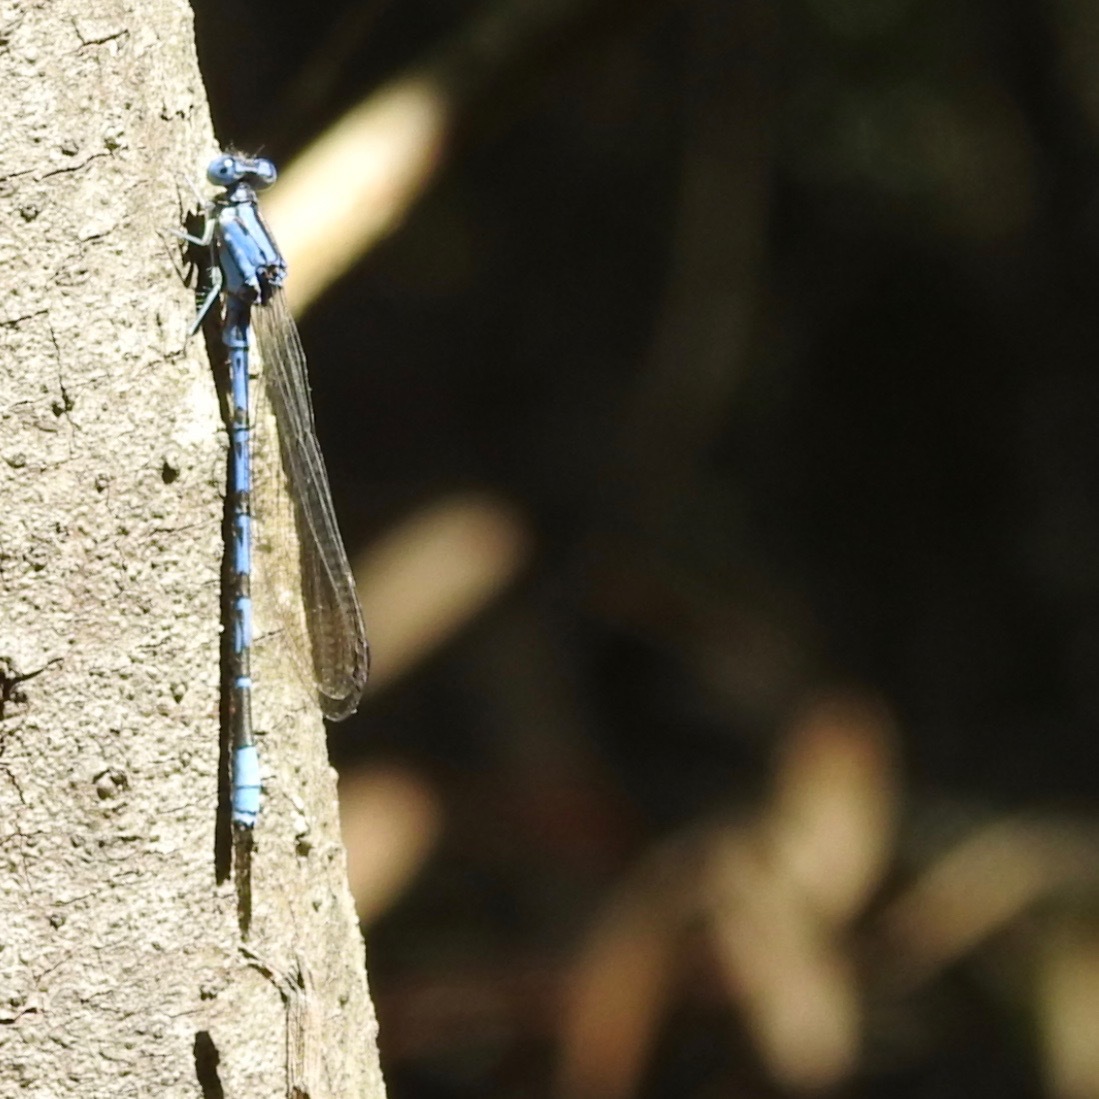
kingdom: Animalia
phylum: Arthropoda
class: Insecta
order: Odonata
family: Coenagrionidae
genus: Argia
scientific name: Argia vivida
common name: Vivid dancer
